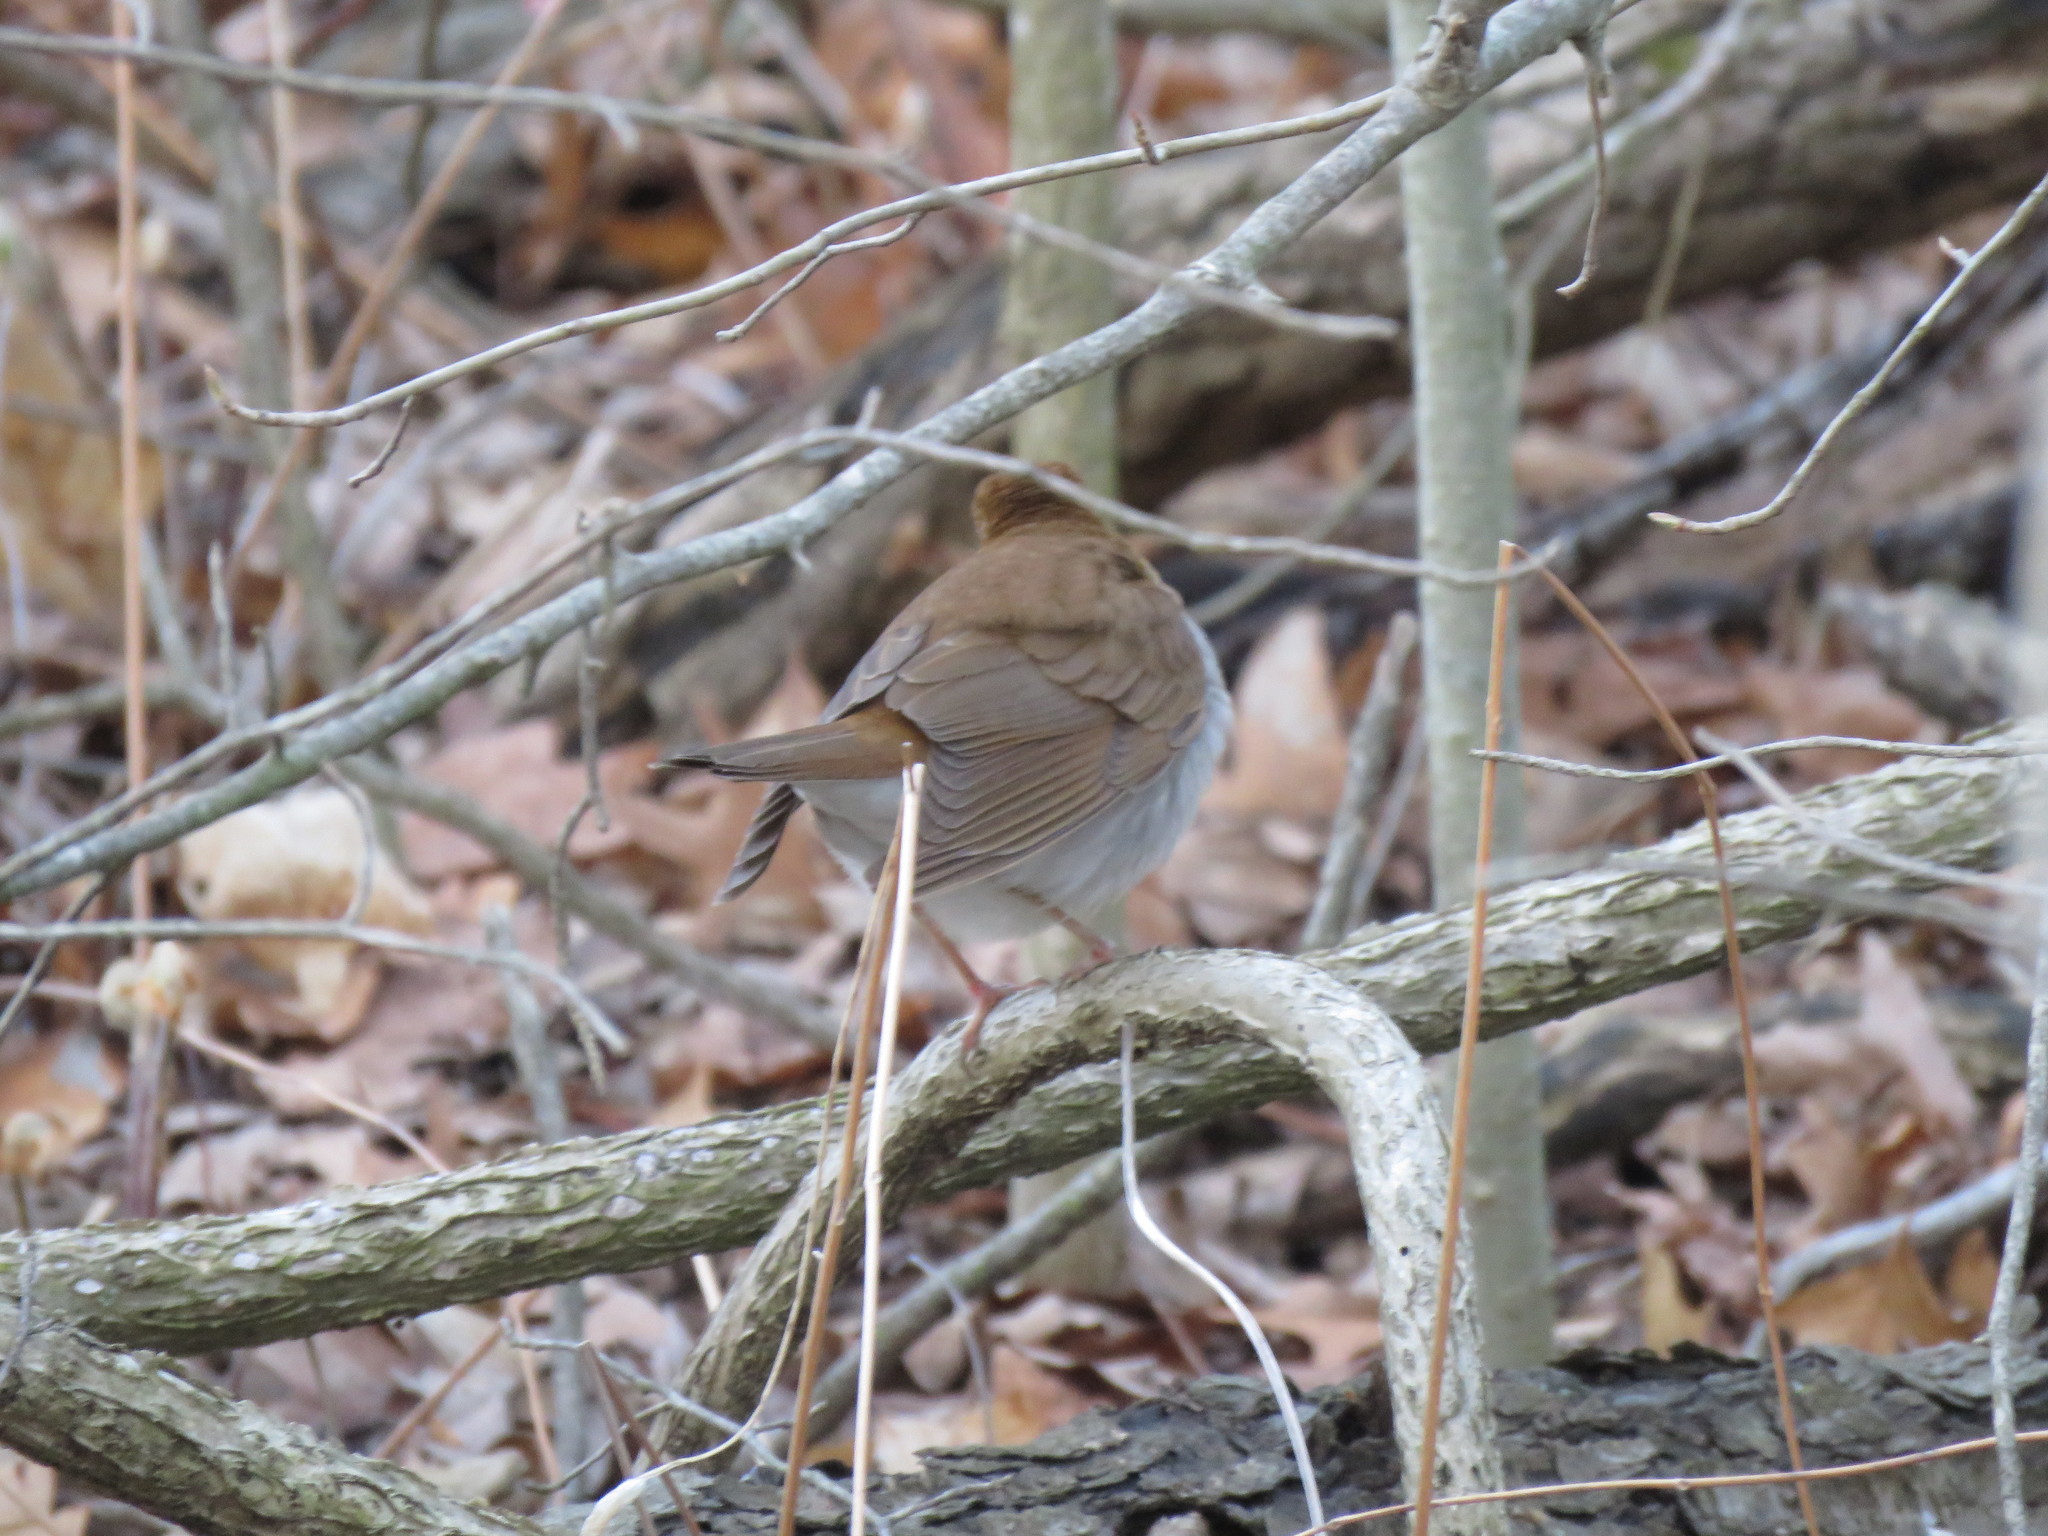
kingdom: Animalia
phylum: Chordata
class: Aves
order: Passeriformes
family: Turdidae
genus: Catharus
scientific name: Catharus fuscescens
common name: Veery
